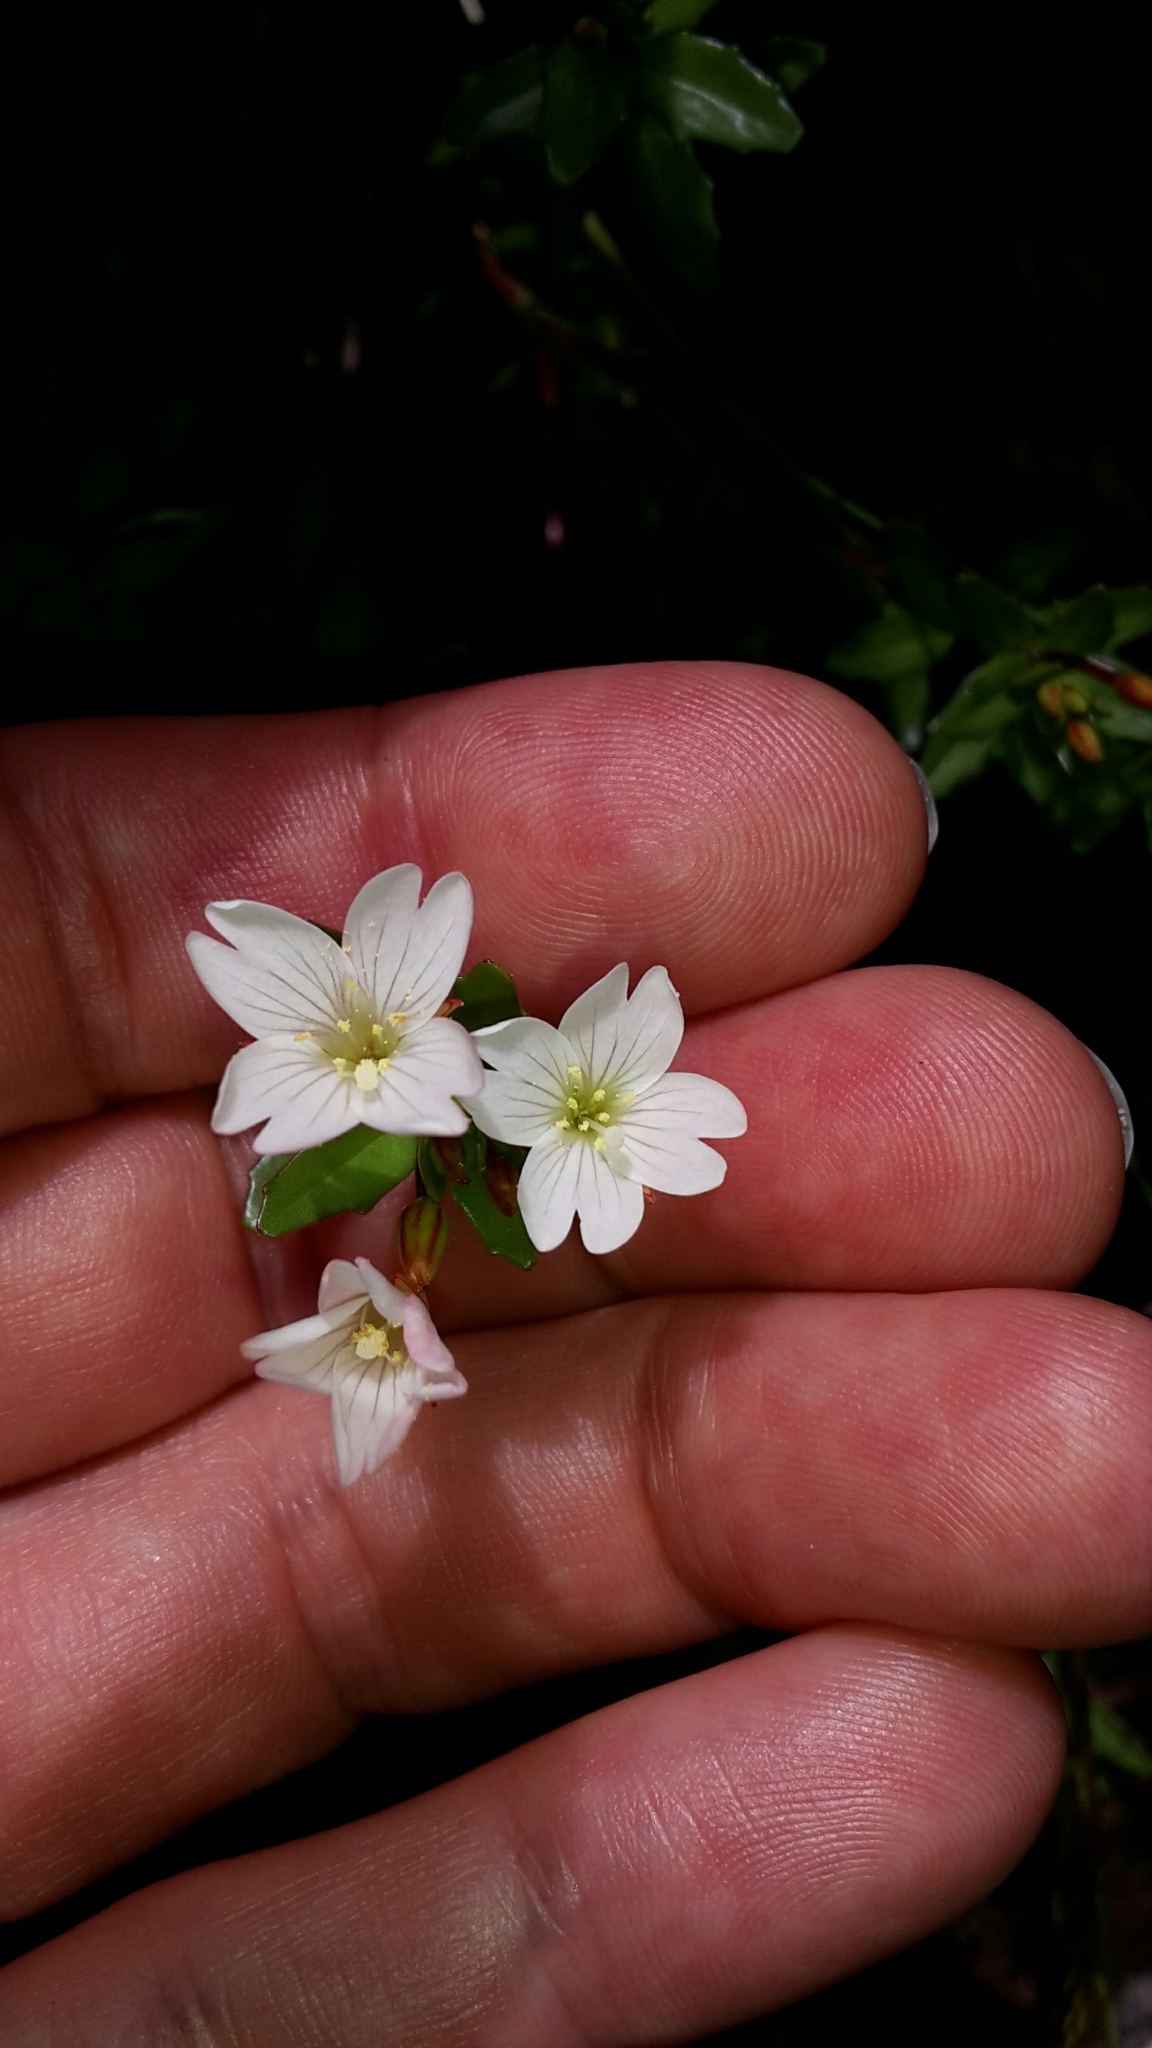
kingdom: Plantae
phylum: Tracheophyta
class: Magnoliopsida
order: Myrtales
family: Onagraceae
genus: Epilobium
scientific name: Epilobium glabellum
